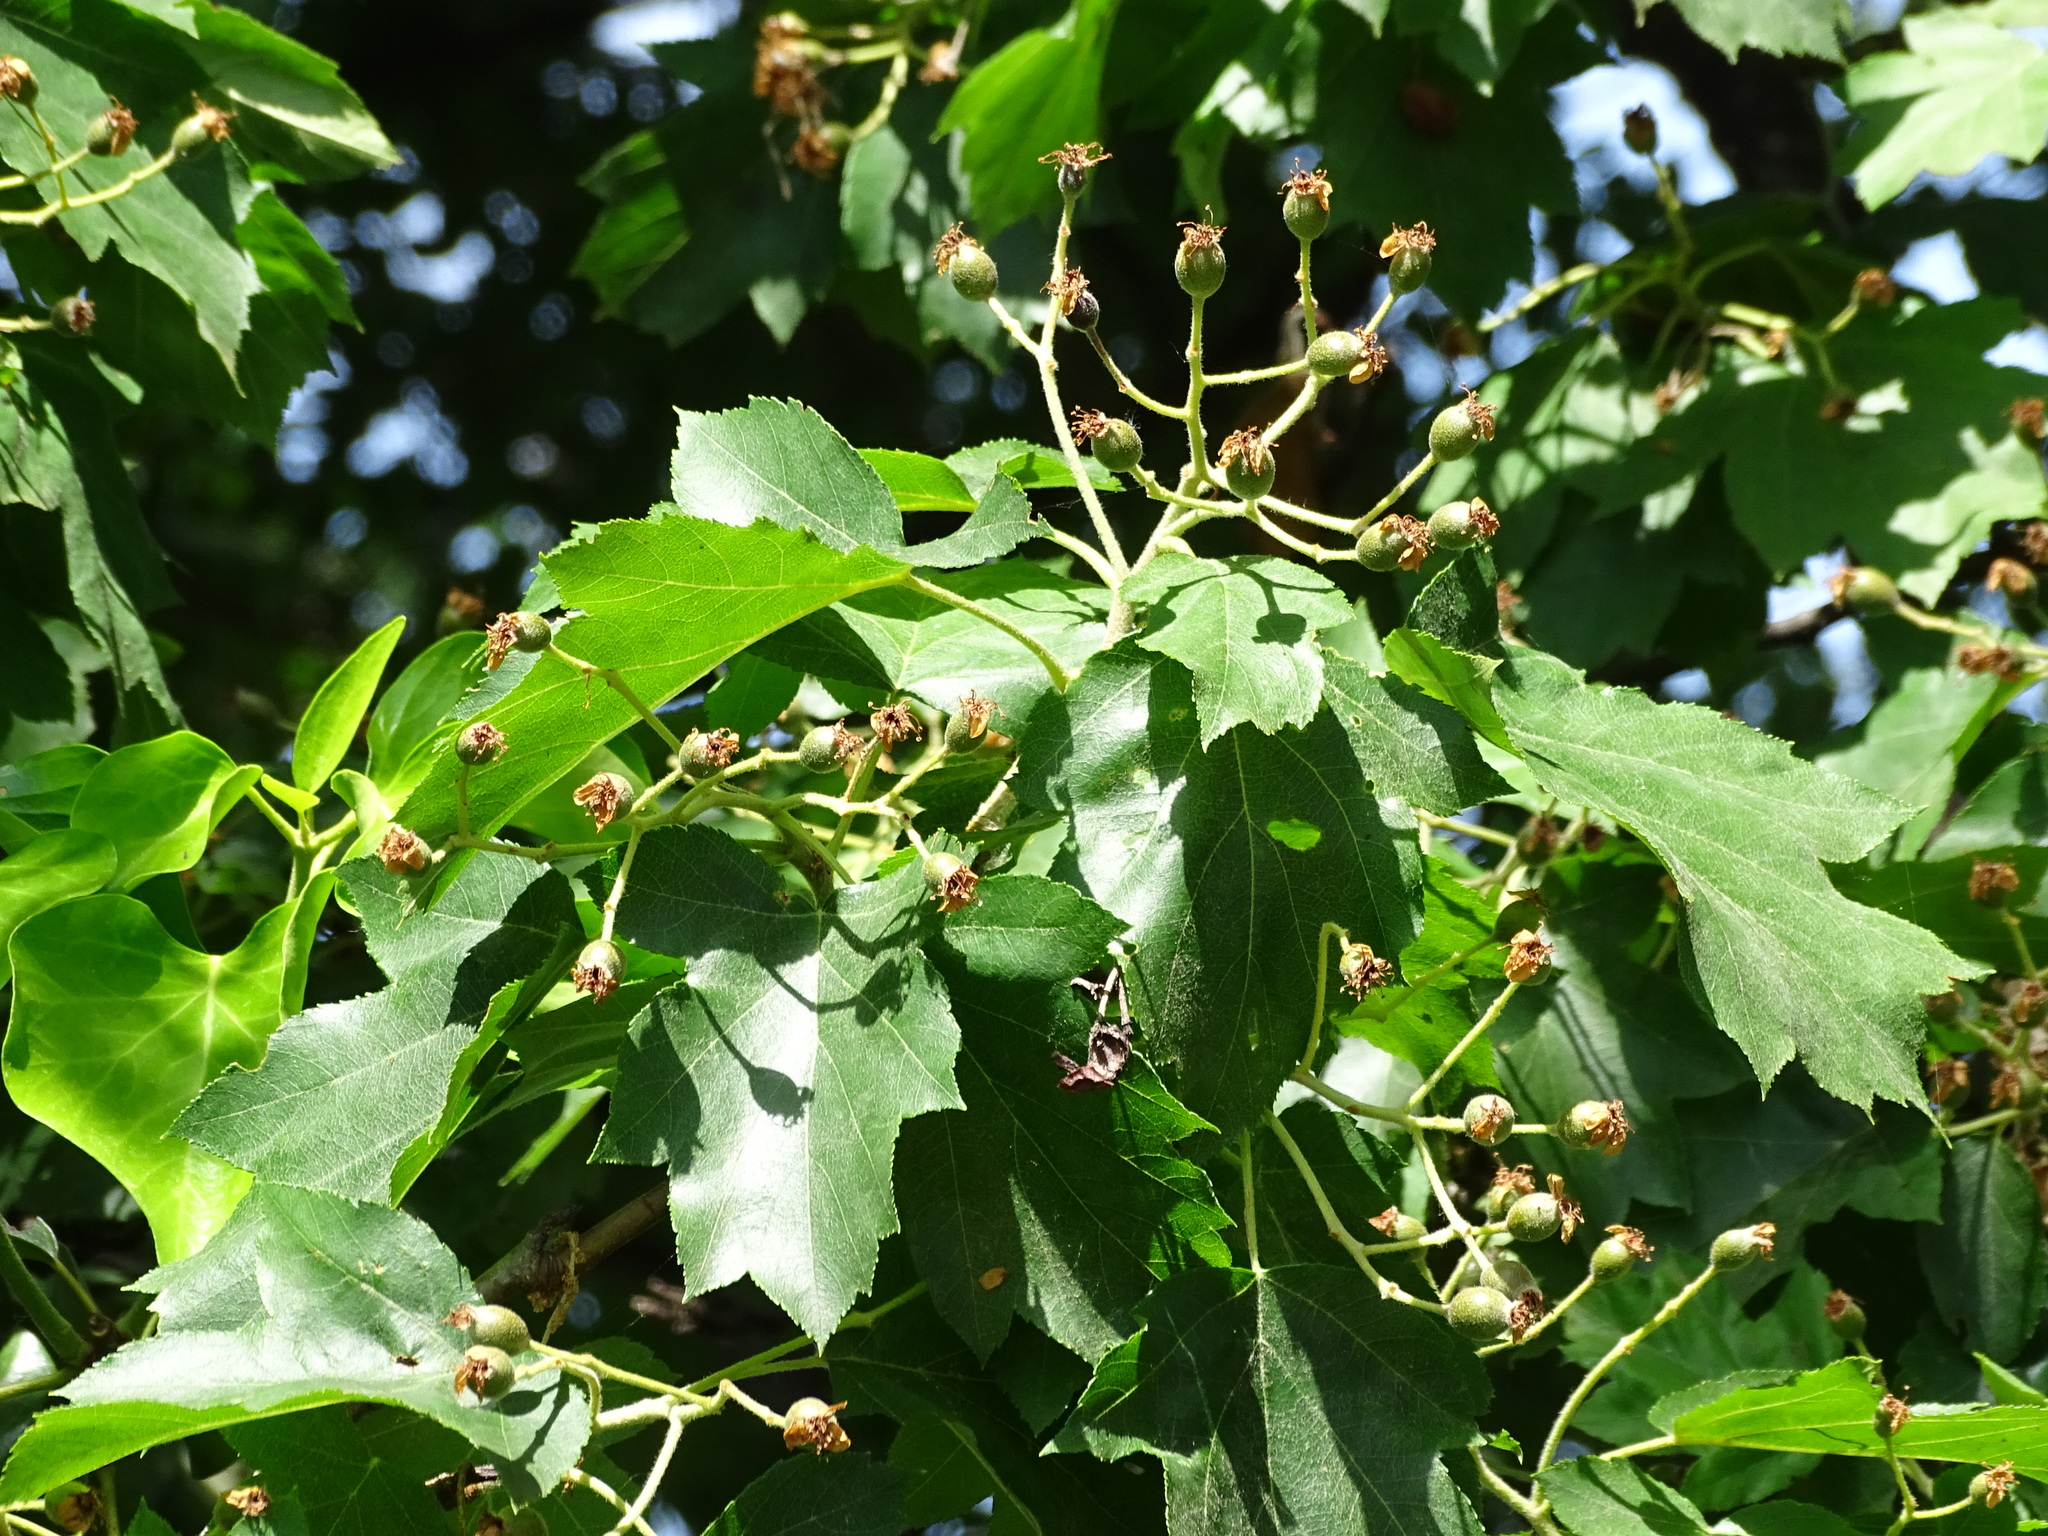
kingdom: Plantae
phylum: Tracheophyta
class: Magnoliopsida
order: Rosales
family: Rosaceae
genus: Torminalis
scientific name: Torminalis glaberrima
